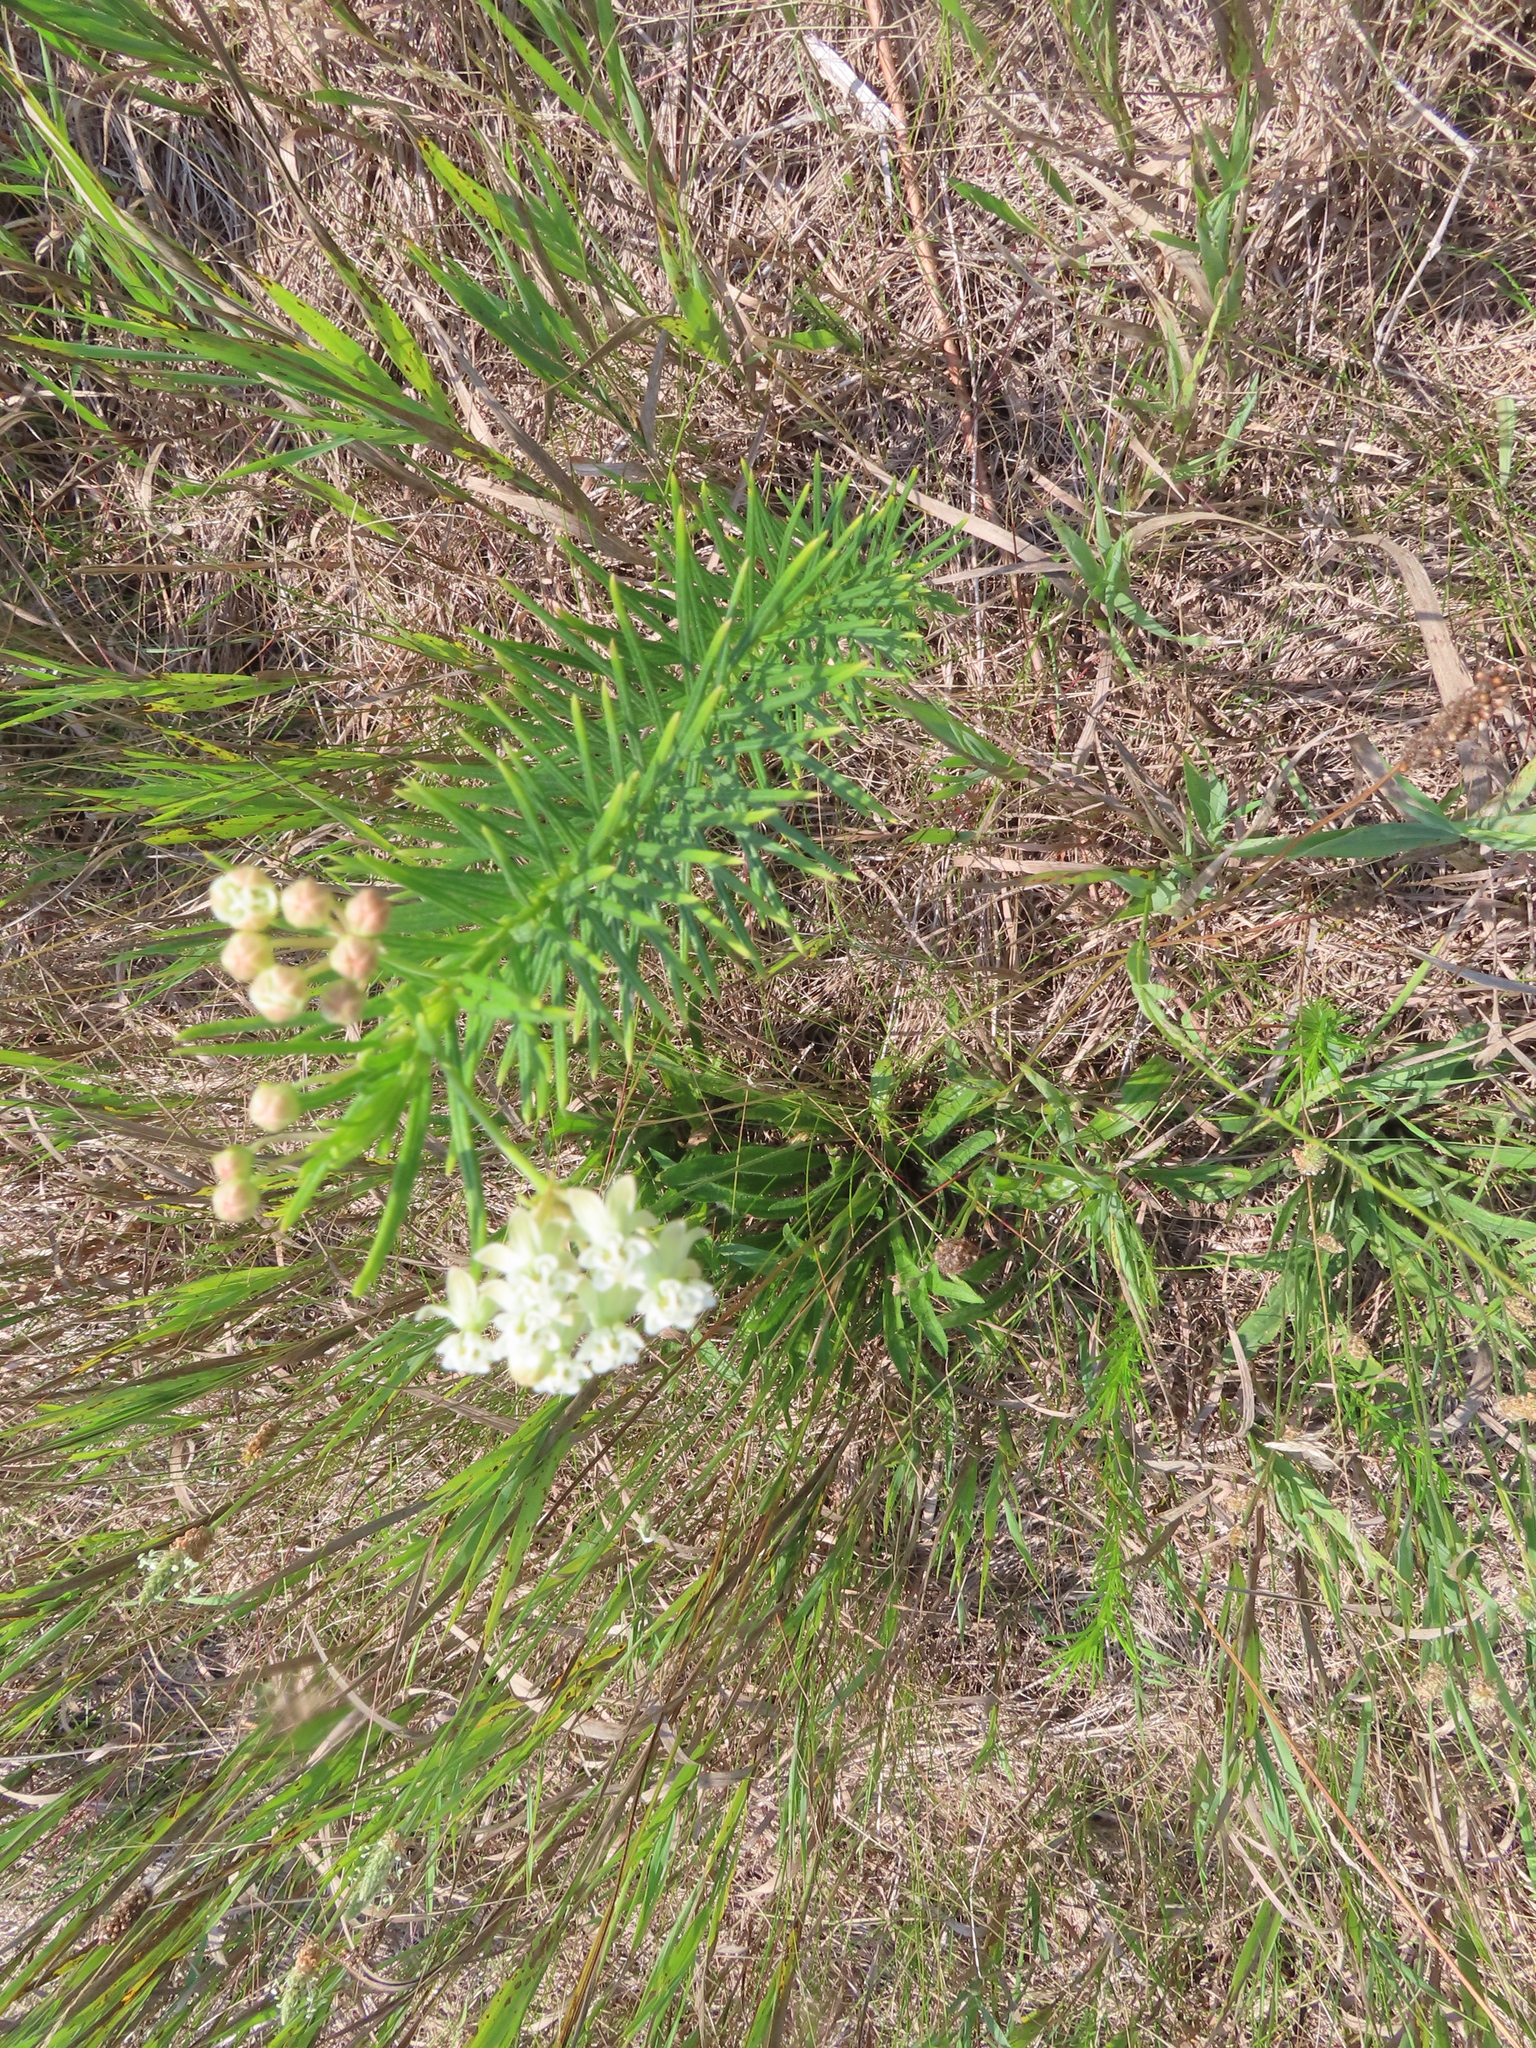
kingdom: Plantae
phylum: Tracheophyta
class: Magnoliopsida
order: Gentianales
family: Apocynaceae
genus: Asclepias
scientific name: Asclepias verticillata
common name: Eastern whorled milkweed
